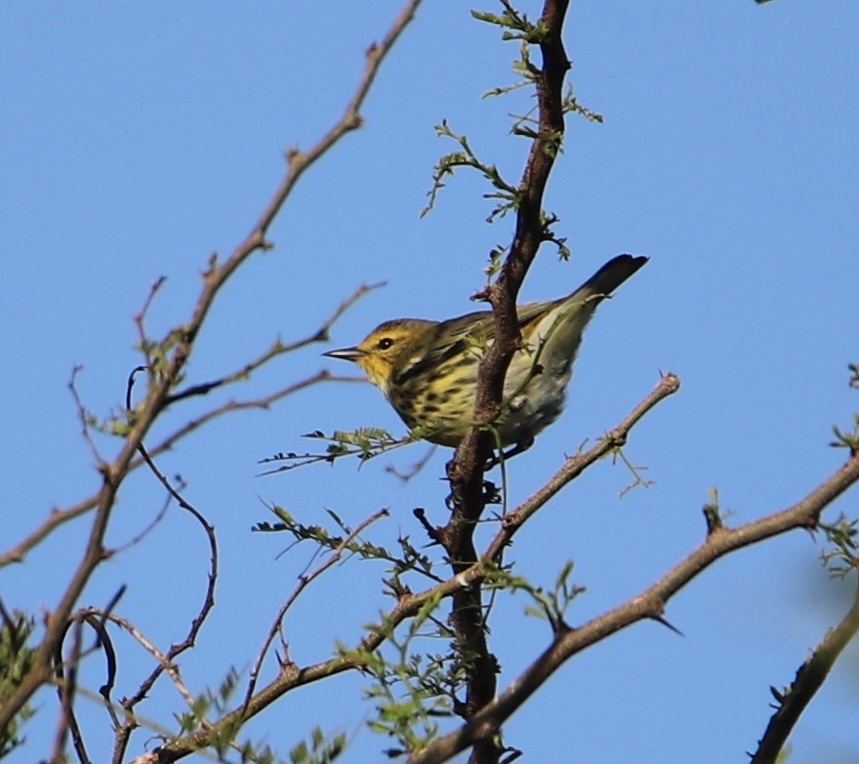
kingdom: Animalia
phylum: Chordata
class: Aves
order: Passeriformes
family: Parulidae
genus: Setophaga
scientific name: Setophaga tigrina
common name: Cape may warbler
